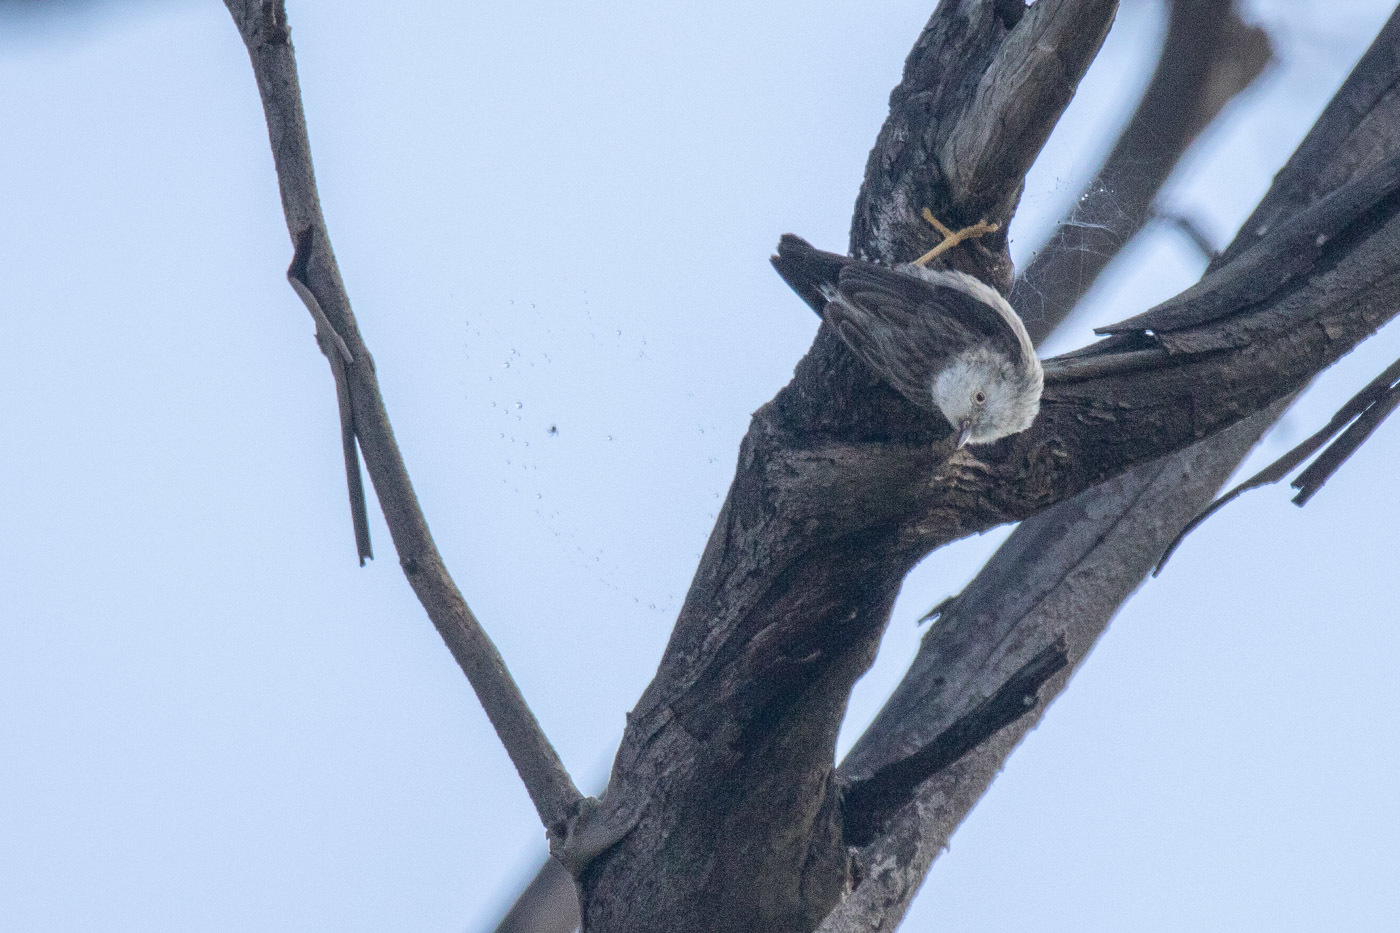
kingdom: Animalia
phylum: Chordata
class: Aves
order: Passeriformes
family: Neosittidae
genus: Daphoenositta
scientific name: Daphoenositta chrysoptera
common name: Varied sittella
